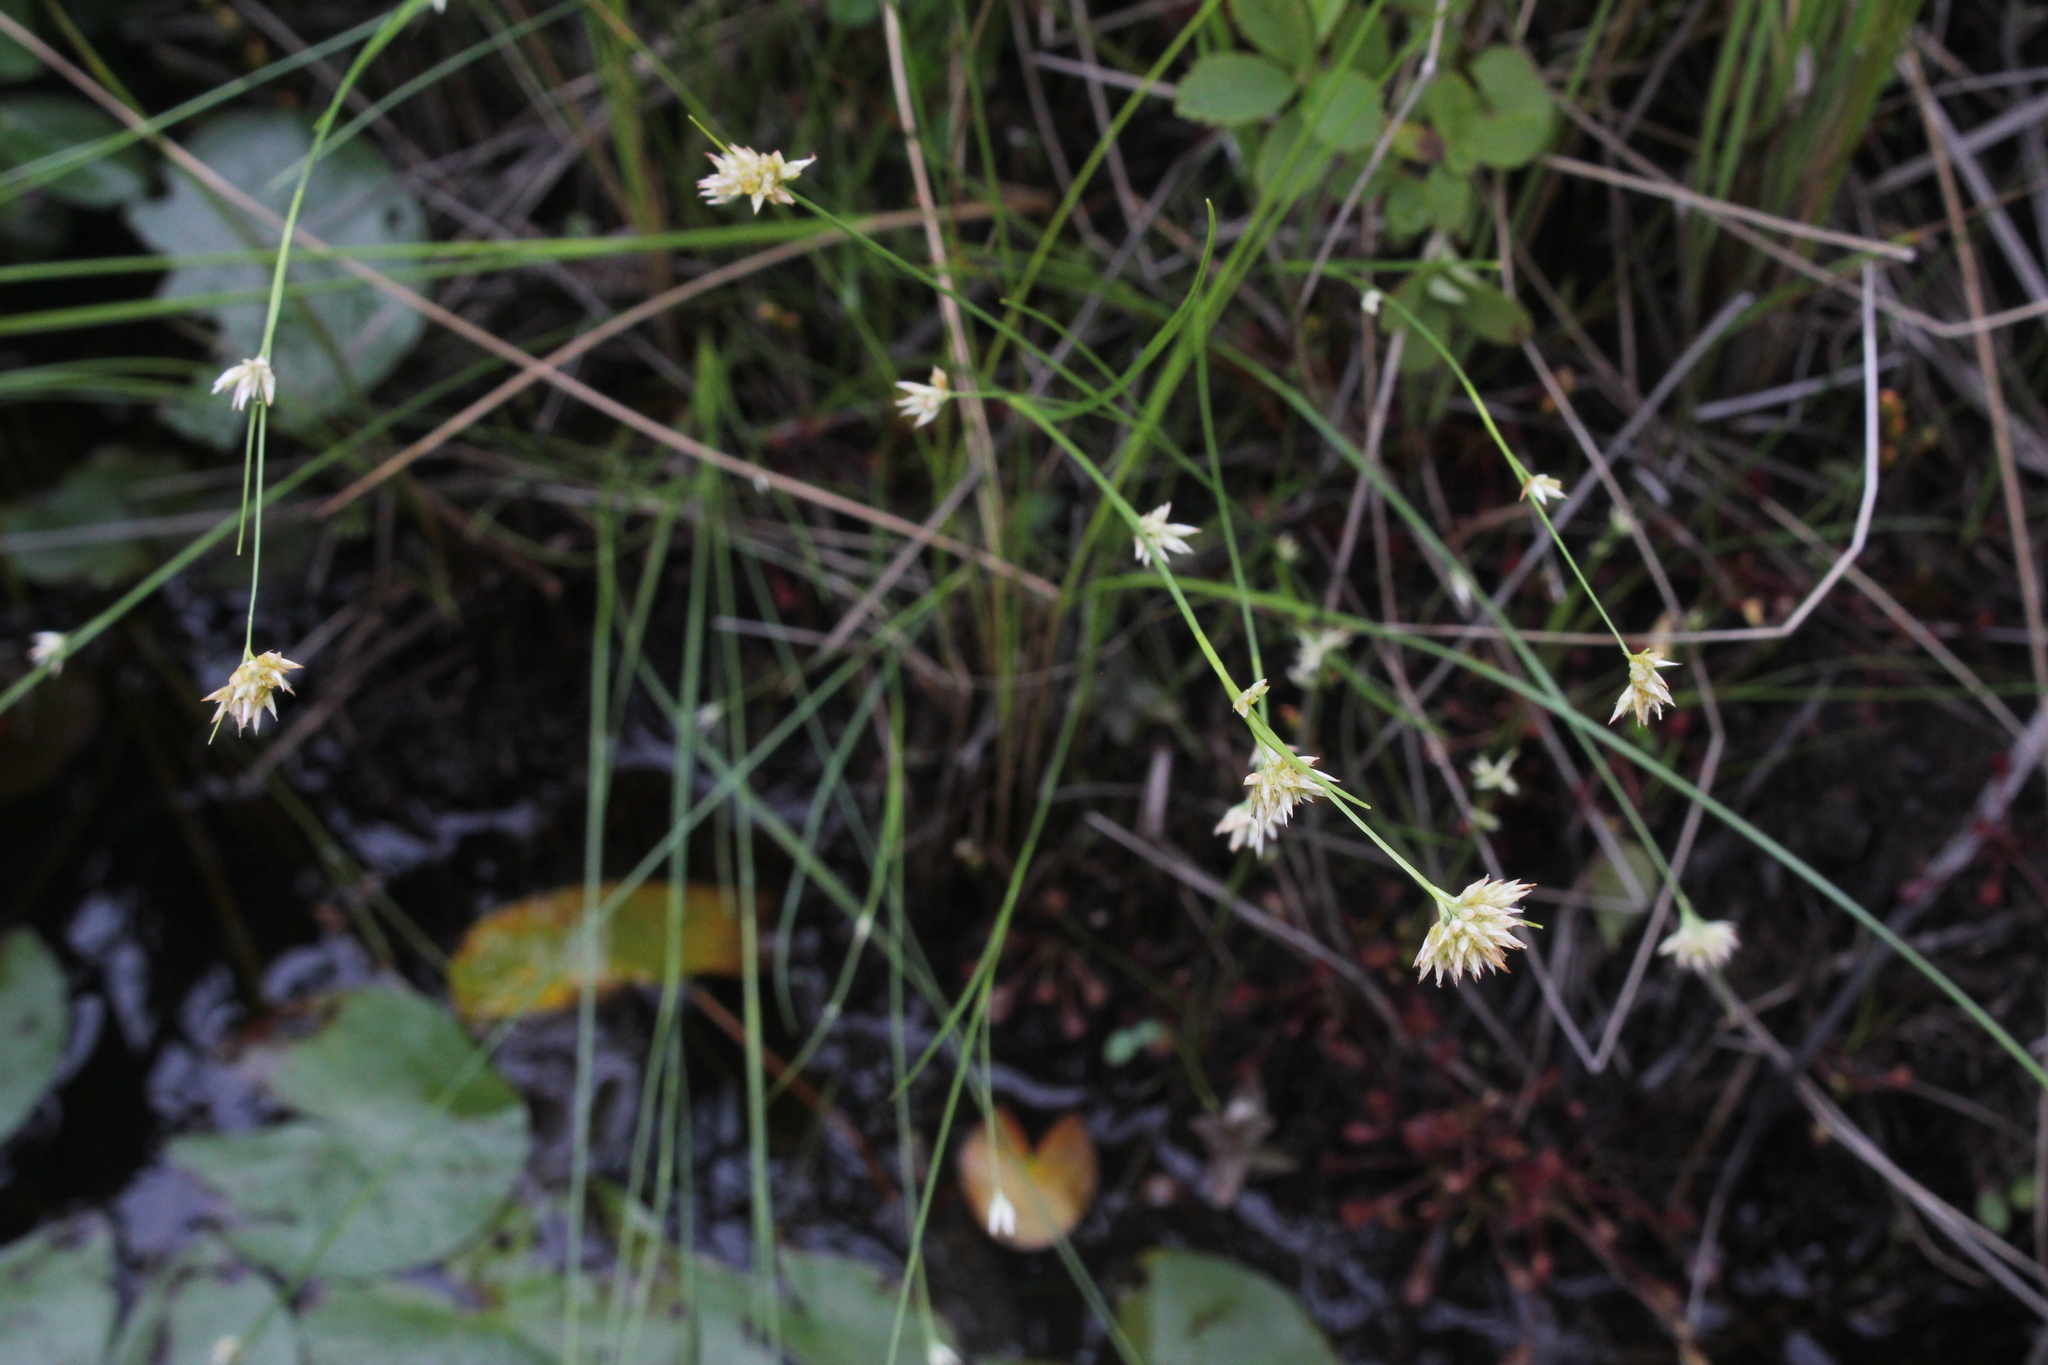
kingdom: Plantae
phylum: Tracheophyta
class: Liliopsida
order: Poales
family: Cyperaceae
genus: Rhynchospora
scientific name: Rhynchospora alba
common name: White beak-sedge
